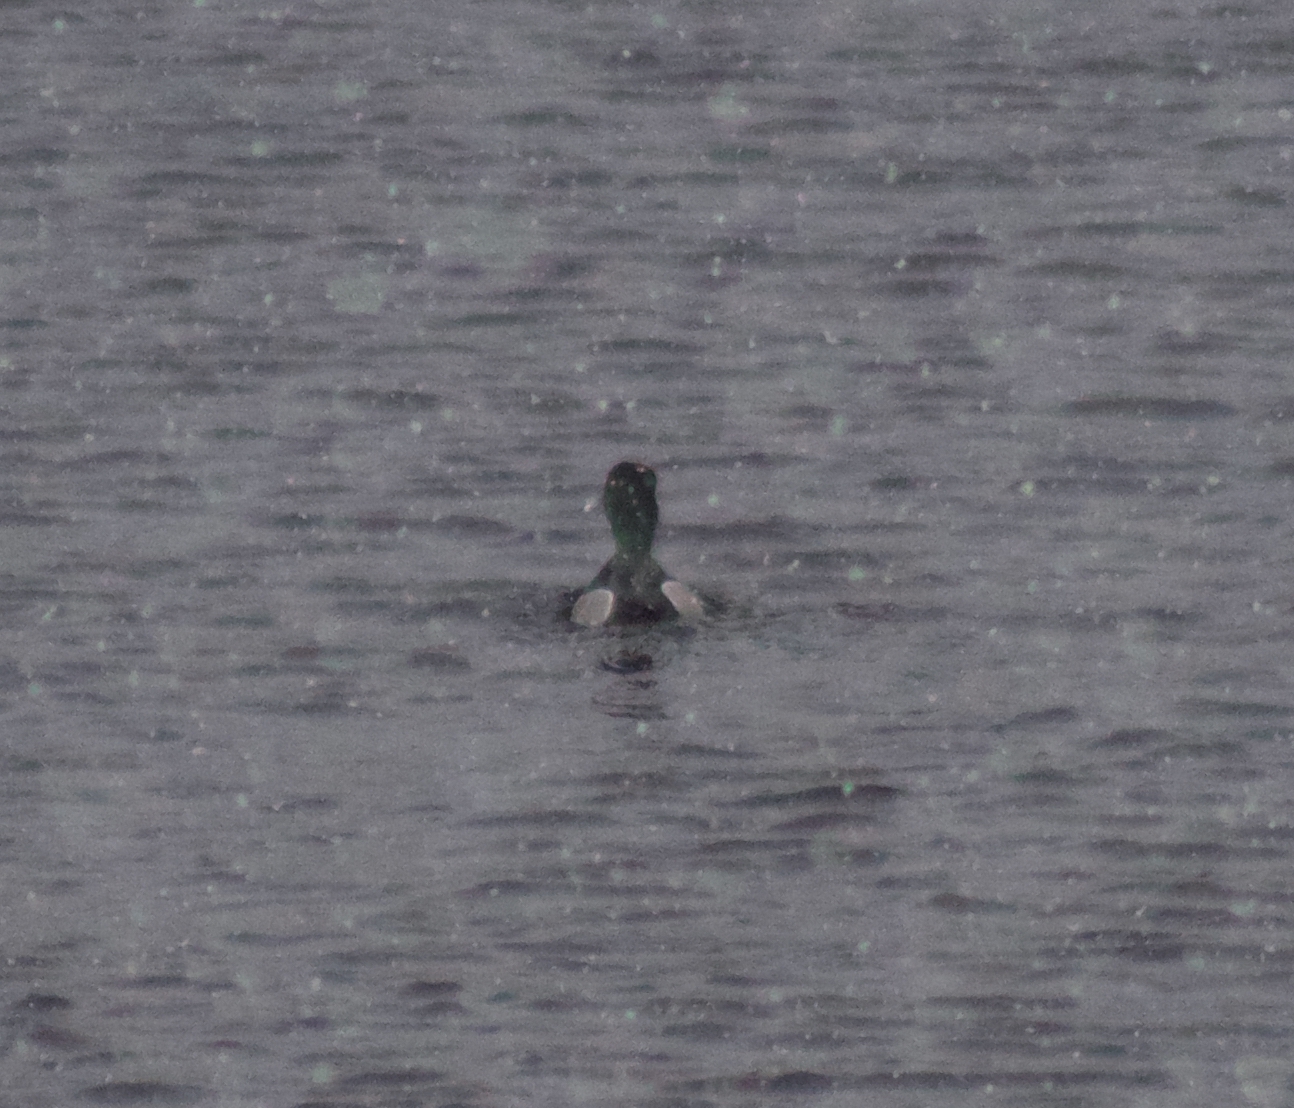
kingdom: Animalia
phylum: Chordata
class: Aves
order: Anseriformes
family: Anatidae
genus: Aythya
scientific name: Aythya collaris
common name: Ring-necked duck
